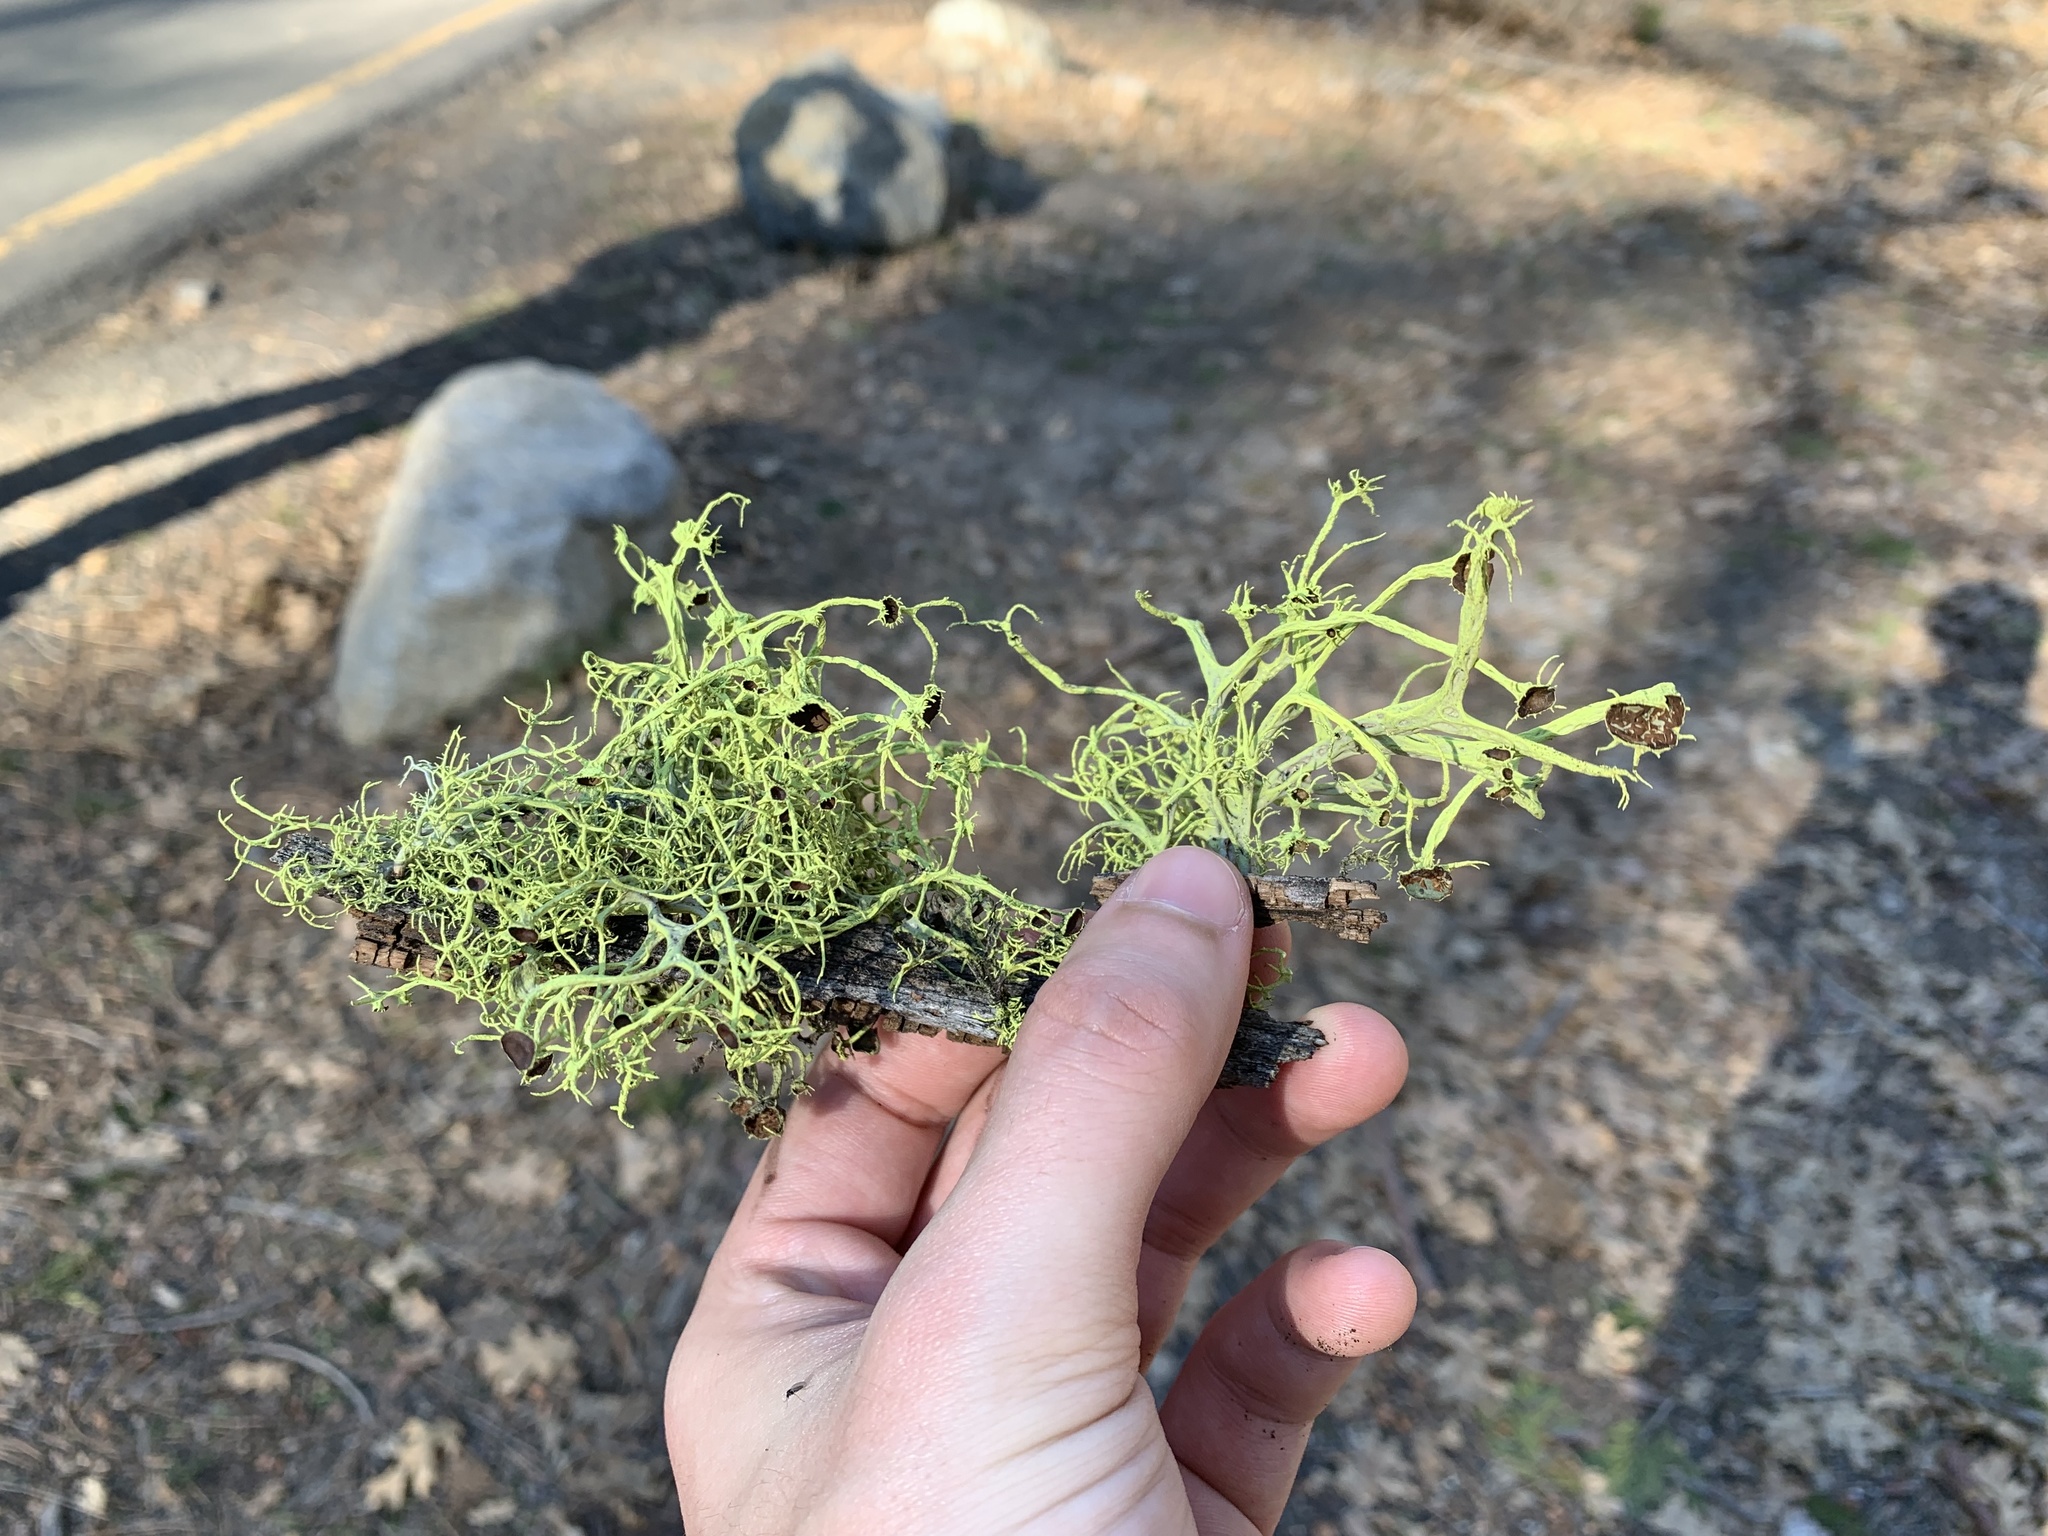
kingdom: Fungi
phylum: Ascomycota
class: Lecanoromycetes
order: Lecanorales
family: Parmeliaceae
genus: Letharia
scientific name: Letharia columbiana
